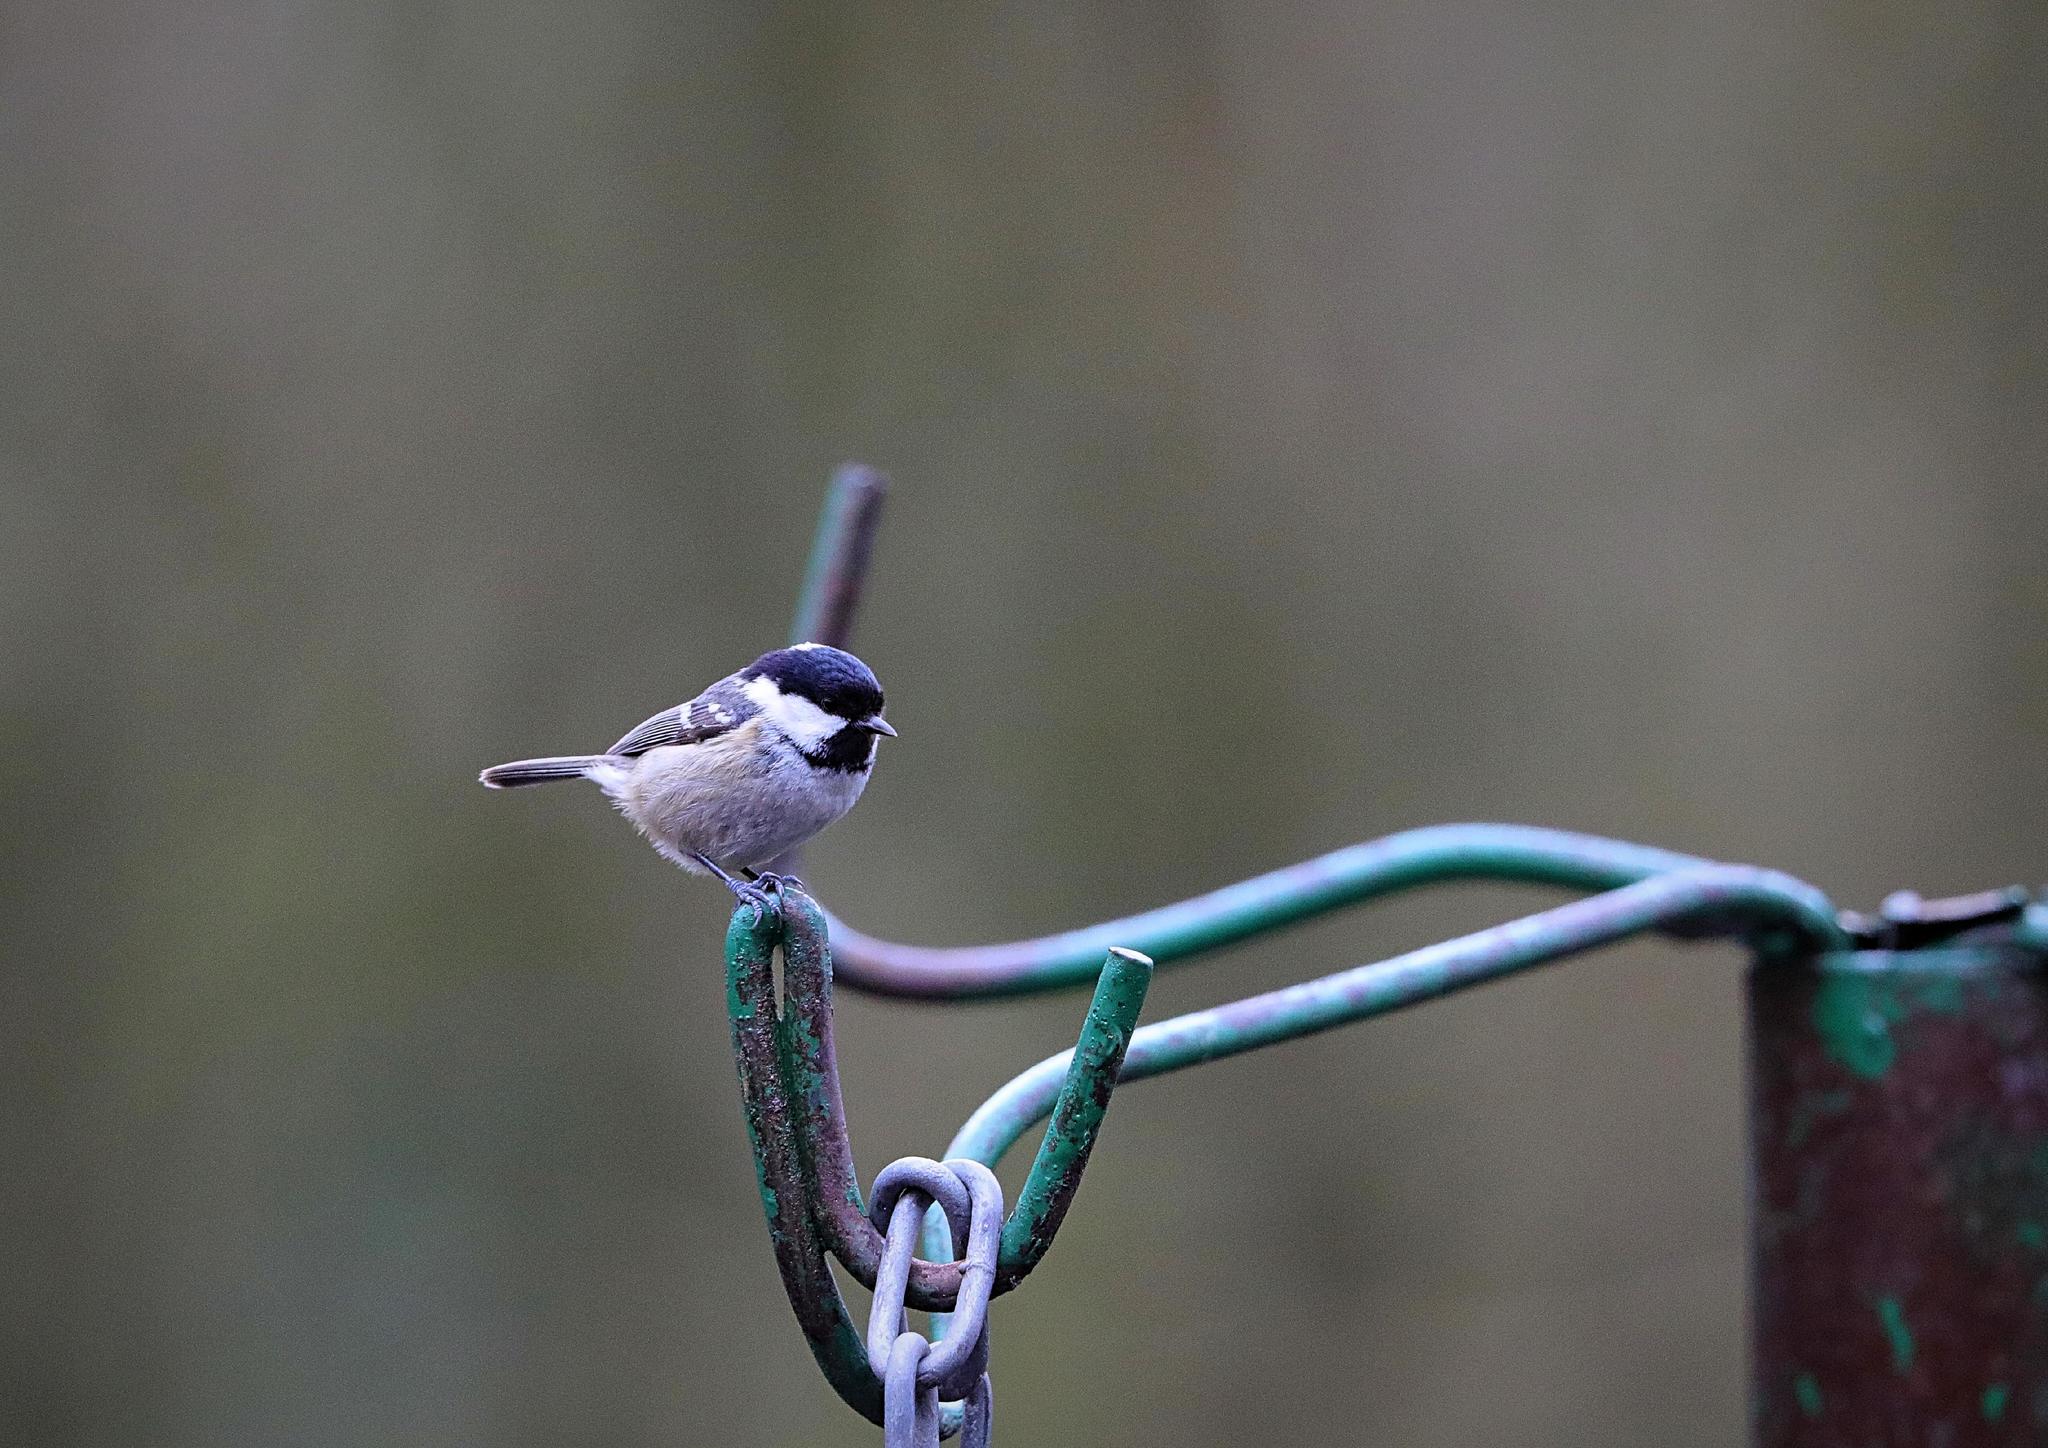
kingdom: Animalia
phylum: Chordata
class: Aves
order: Passeriformes
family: Paridae
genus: Periparus
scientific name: Periparus ater
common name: Coal tit
